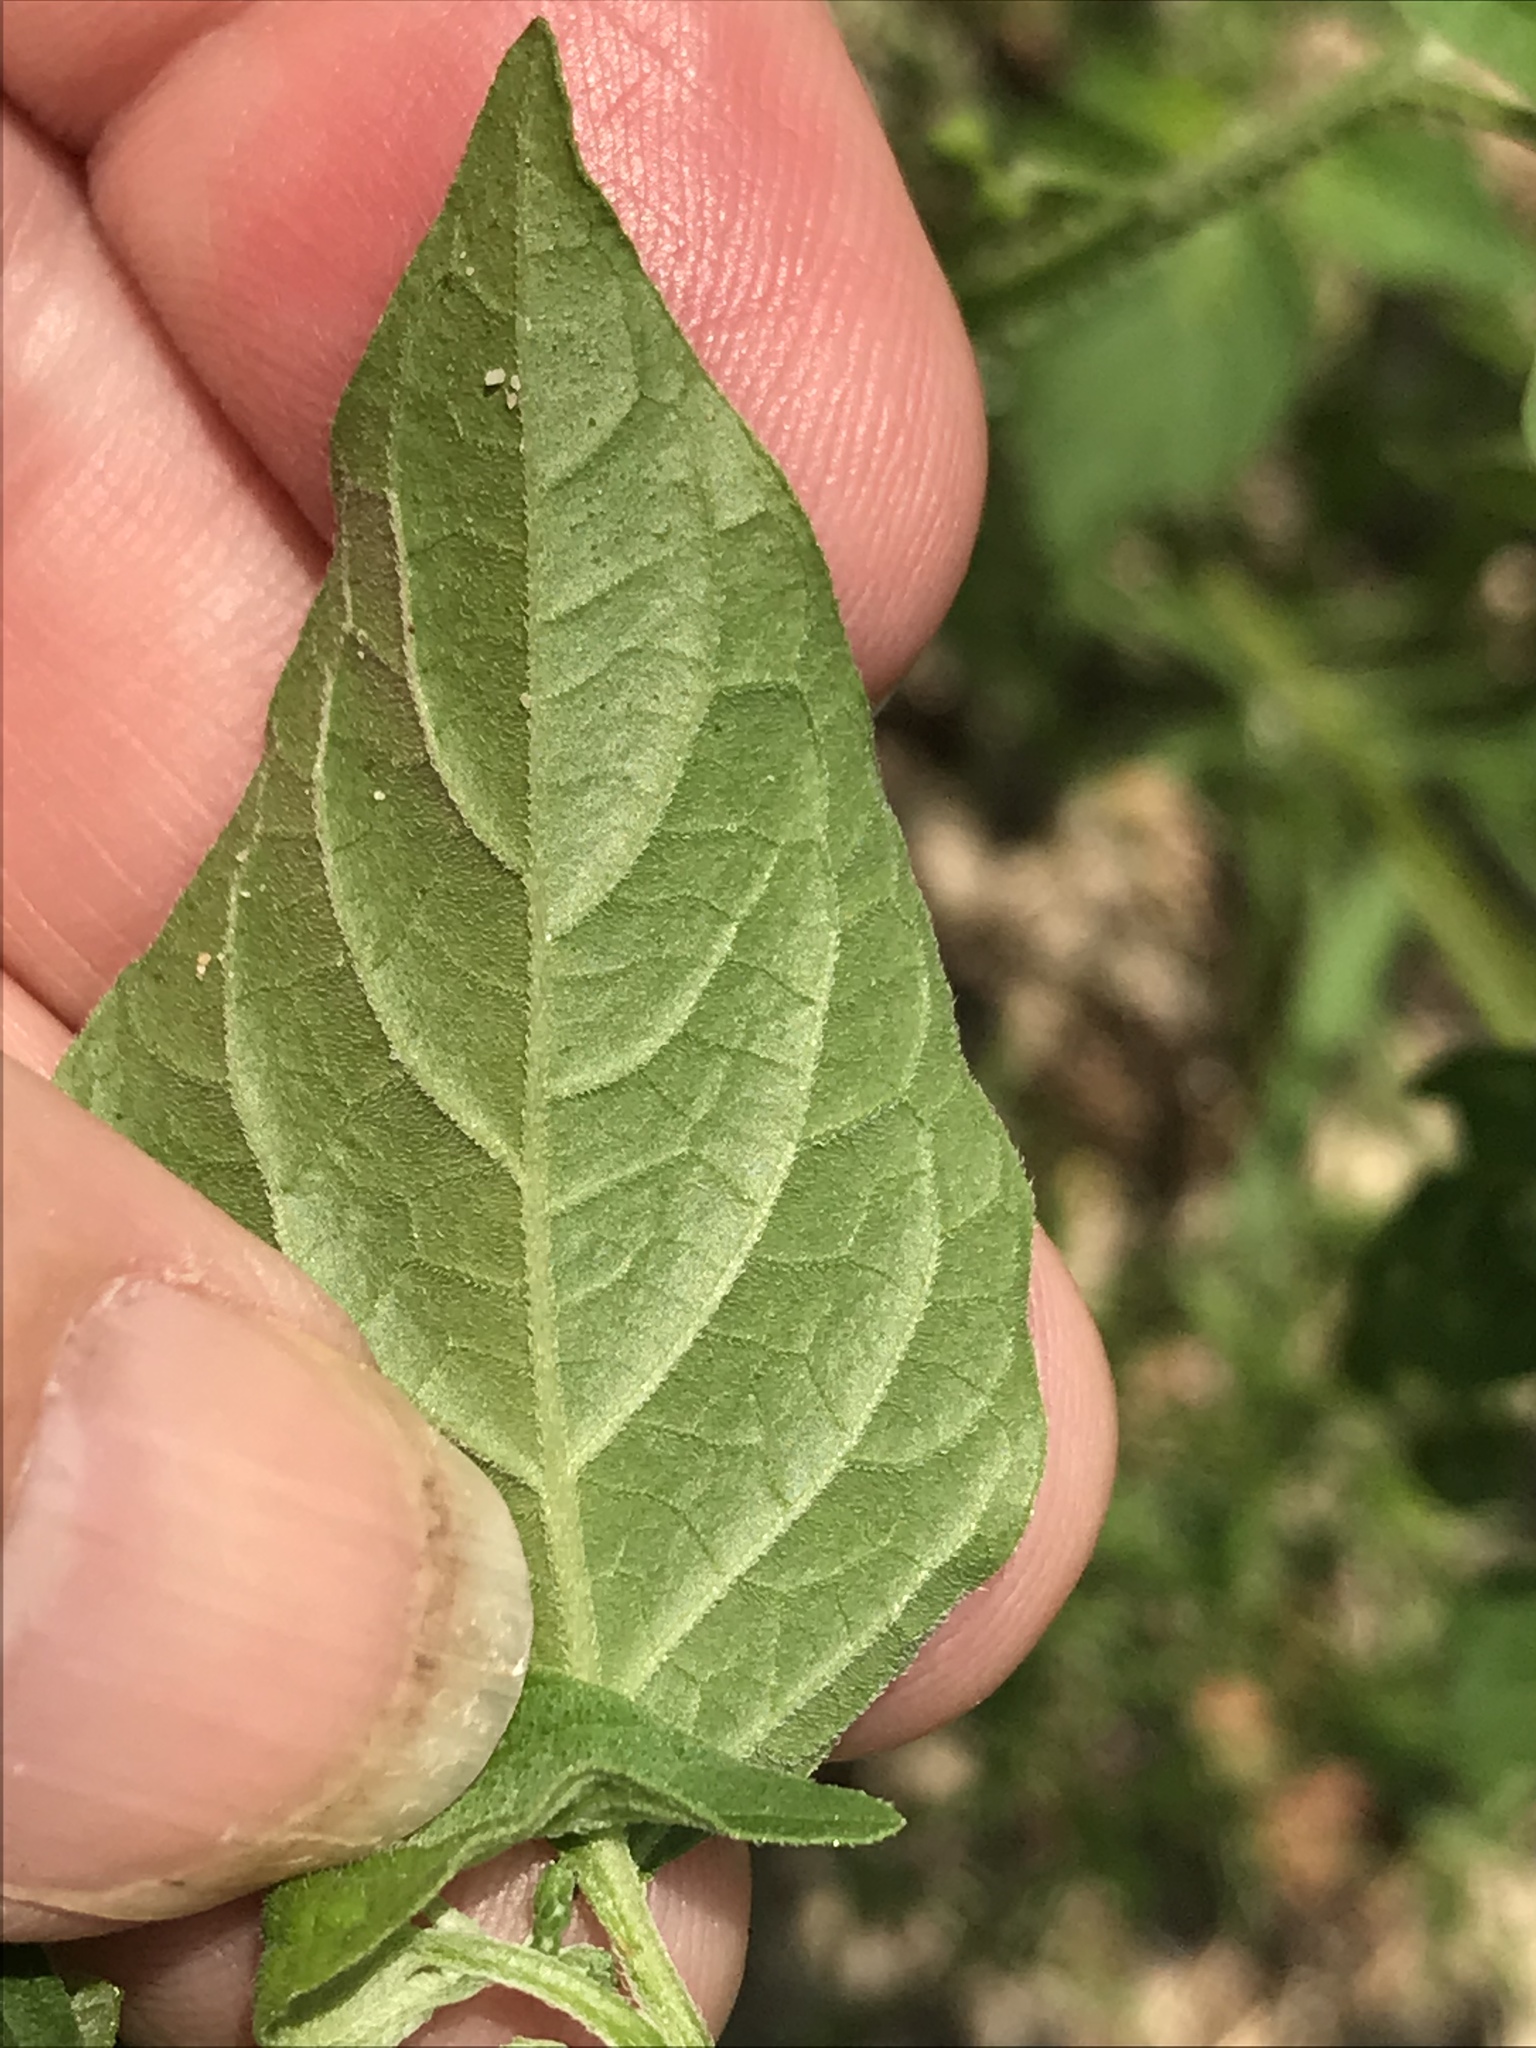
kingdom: Plantae
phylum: Tracheophyta
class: Magnoliopsida
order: Solanales
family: Solanaceae
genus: Solanum
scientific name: Solanum emulans
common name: Eastern black nightshade
